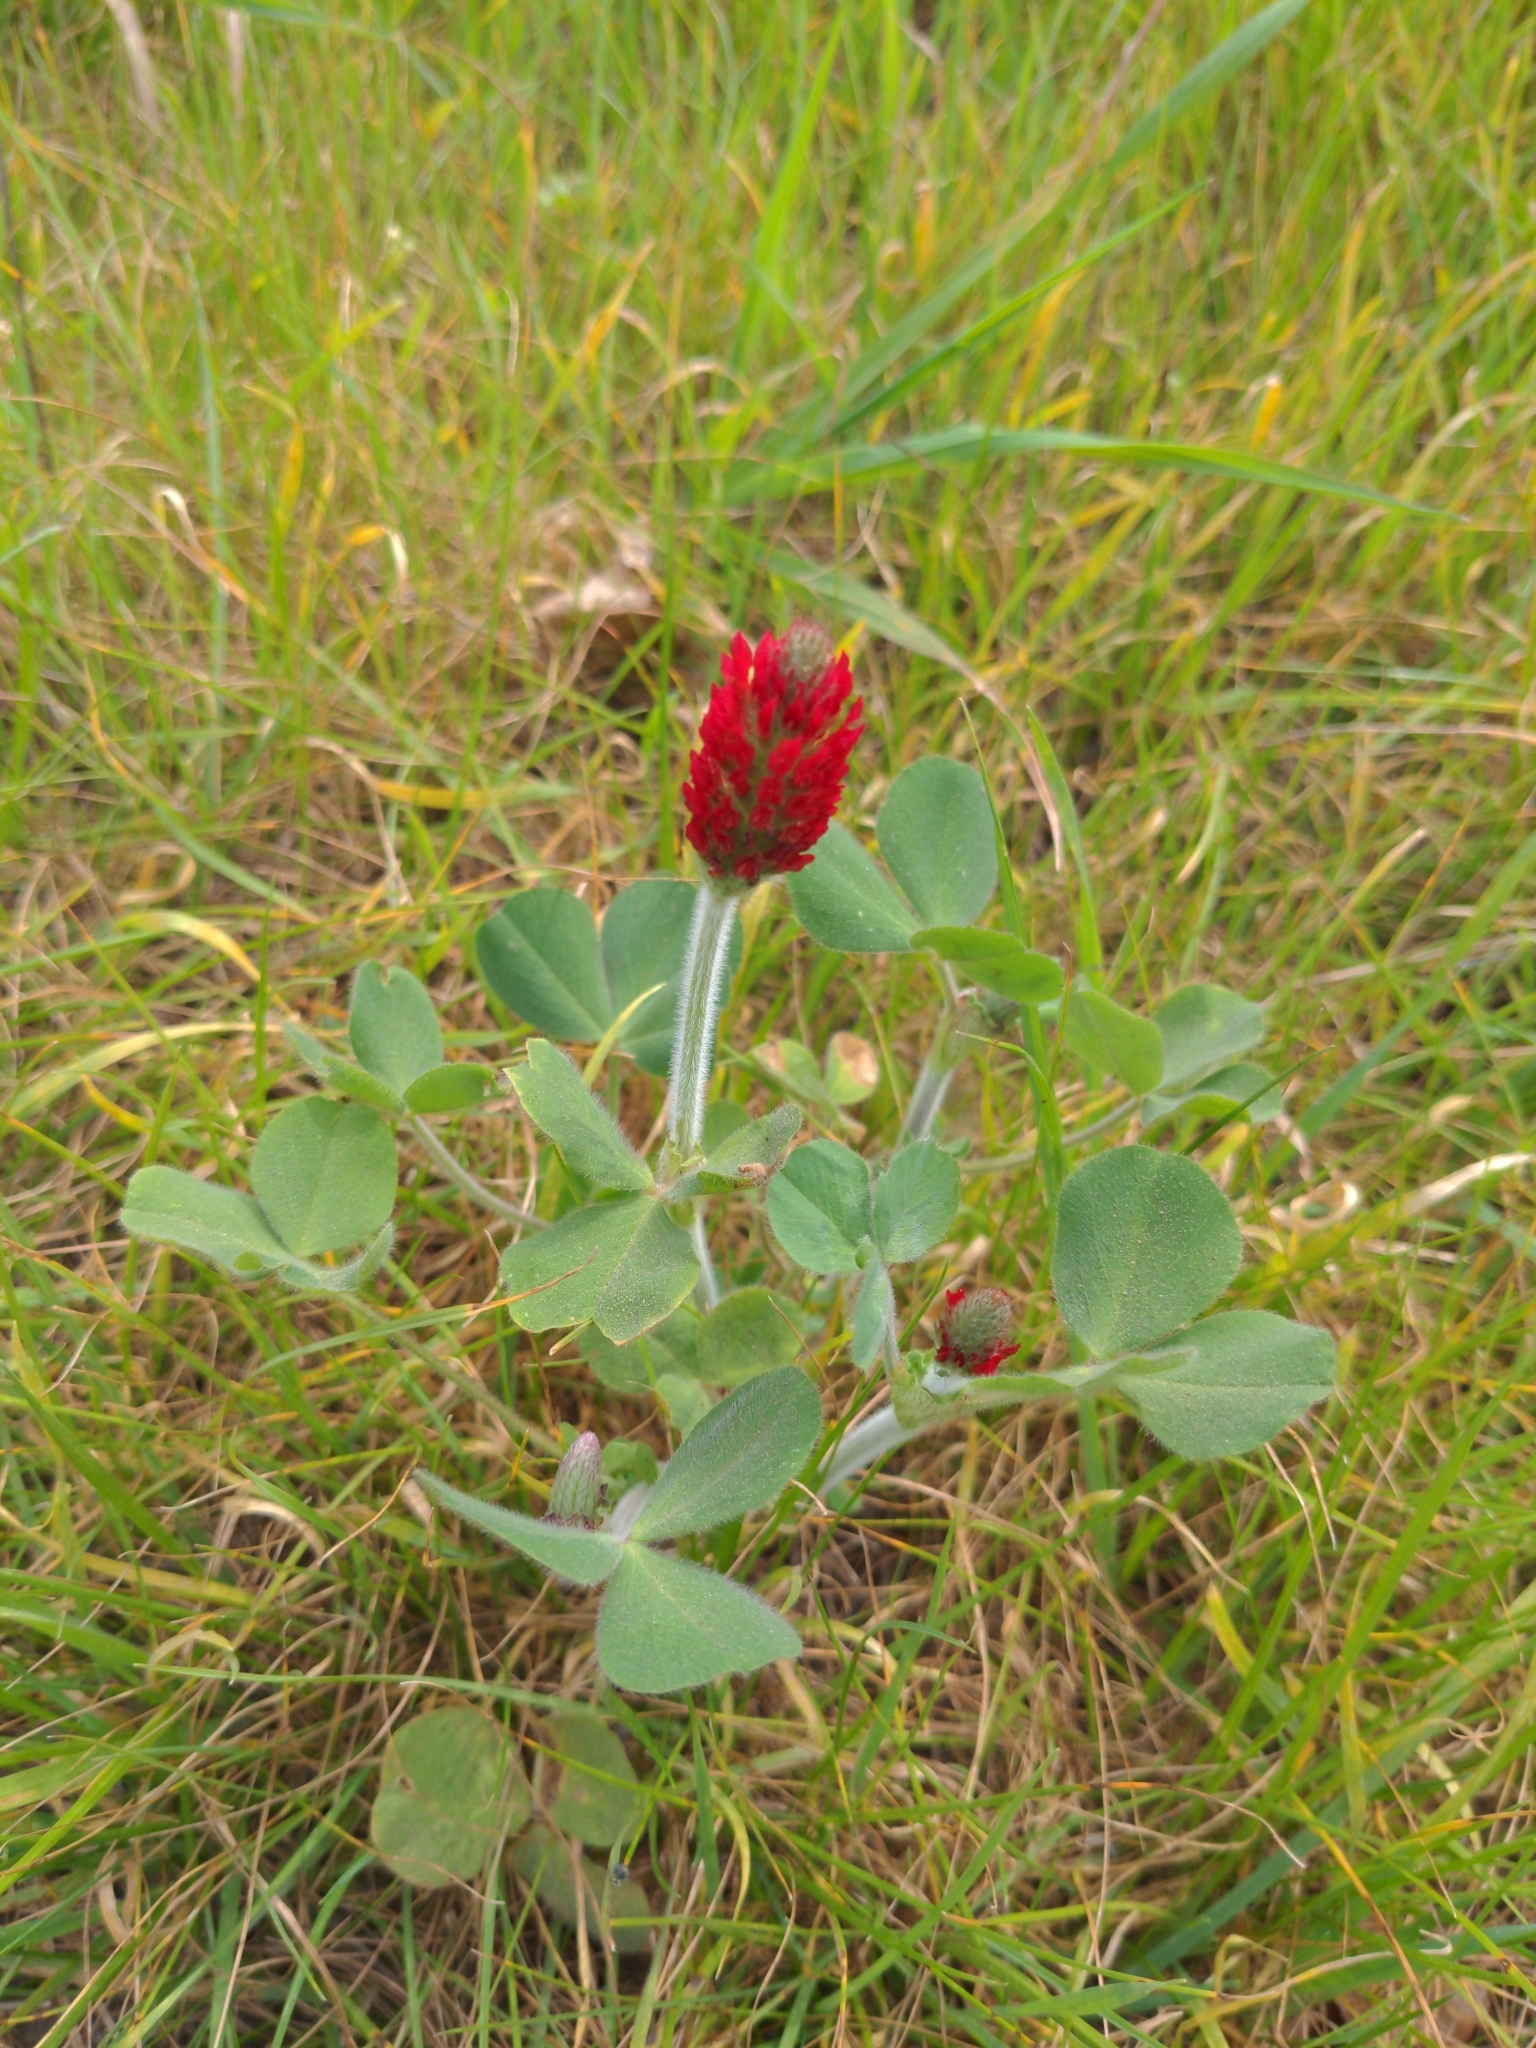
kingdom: Plantae
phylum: Tracheophyta
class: Magnoliopsida
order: Fabales
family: Fabaceae
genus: Trifolium
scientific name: Trifolium incarnatum
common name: Crimson clover
